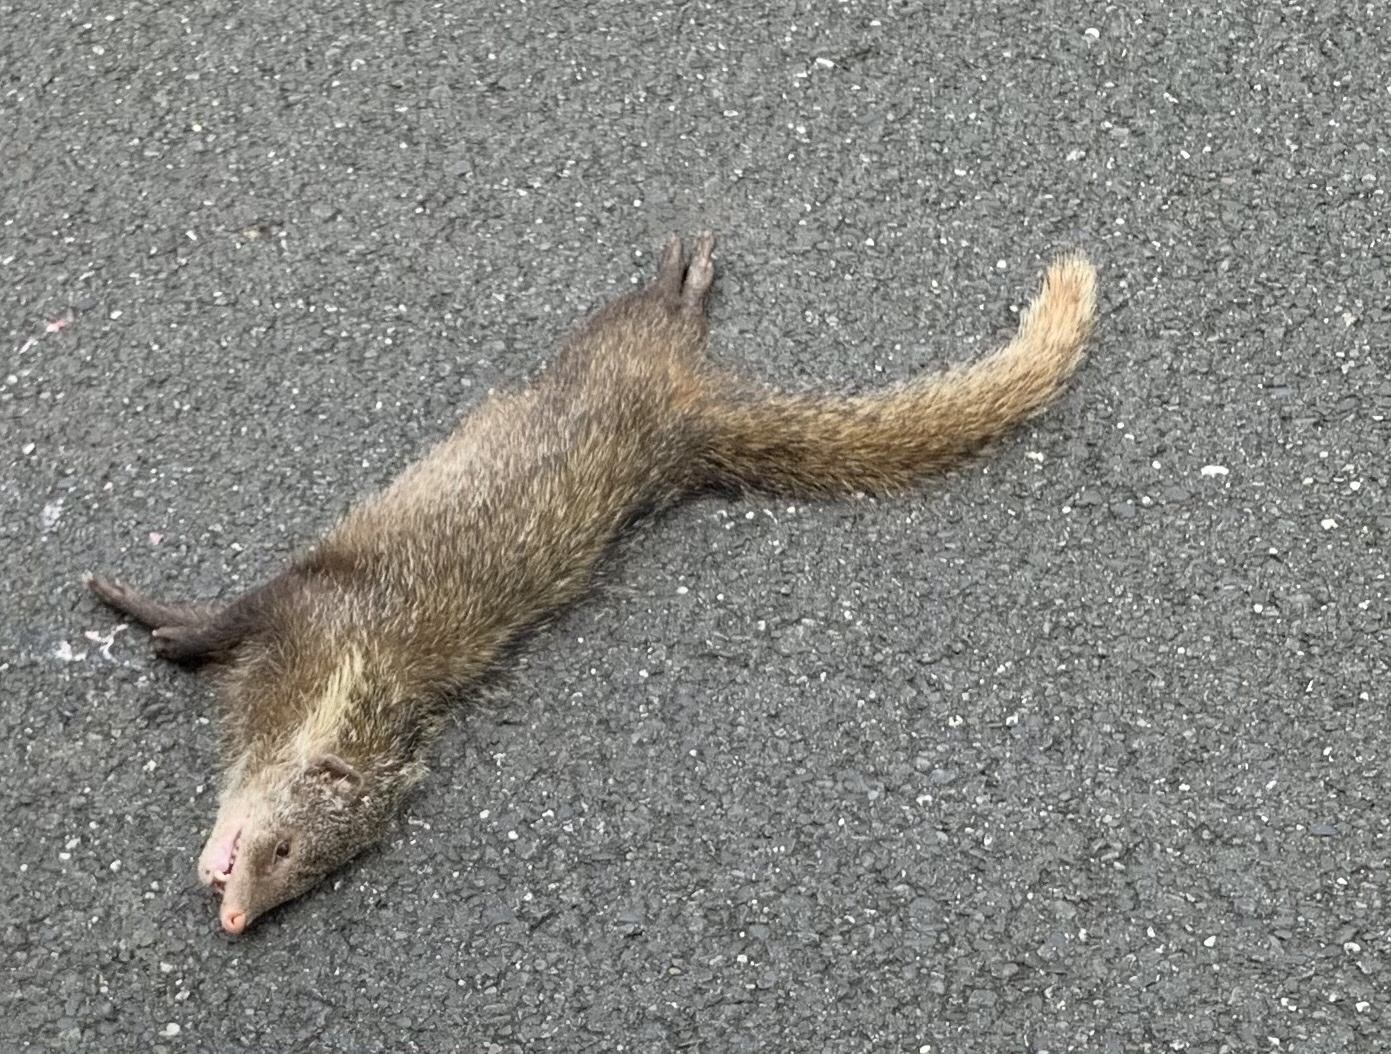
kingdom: Animalia
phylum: Chordata
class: Mammalia
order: Carnivora
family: Herpestidae
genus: Herpestes
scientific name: Herpestes urva
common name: Crab-eating mongoose
